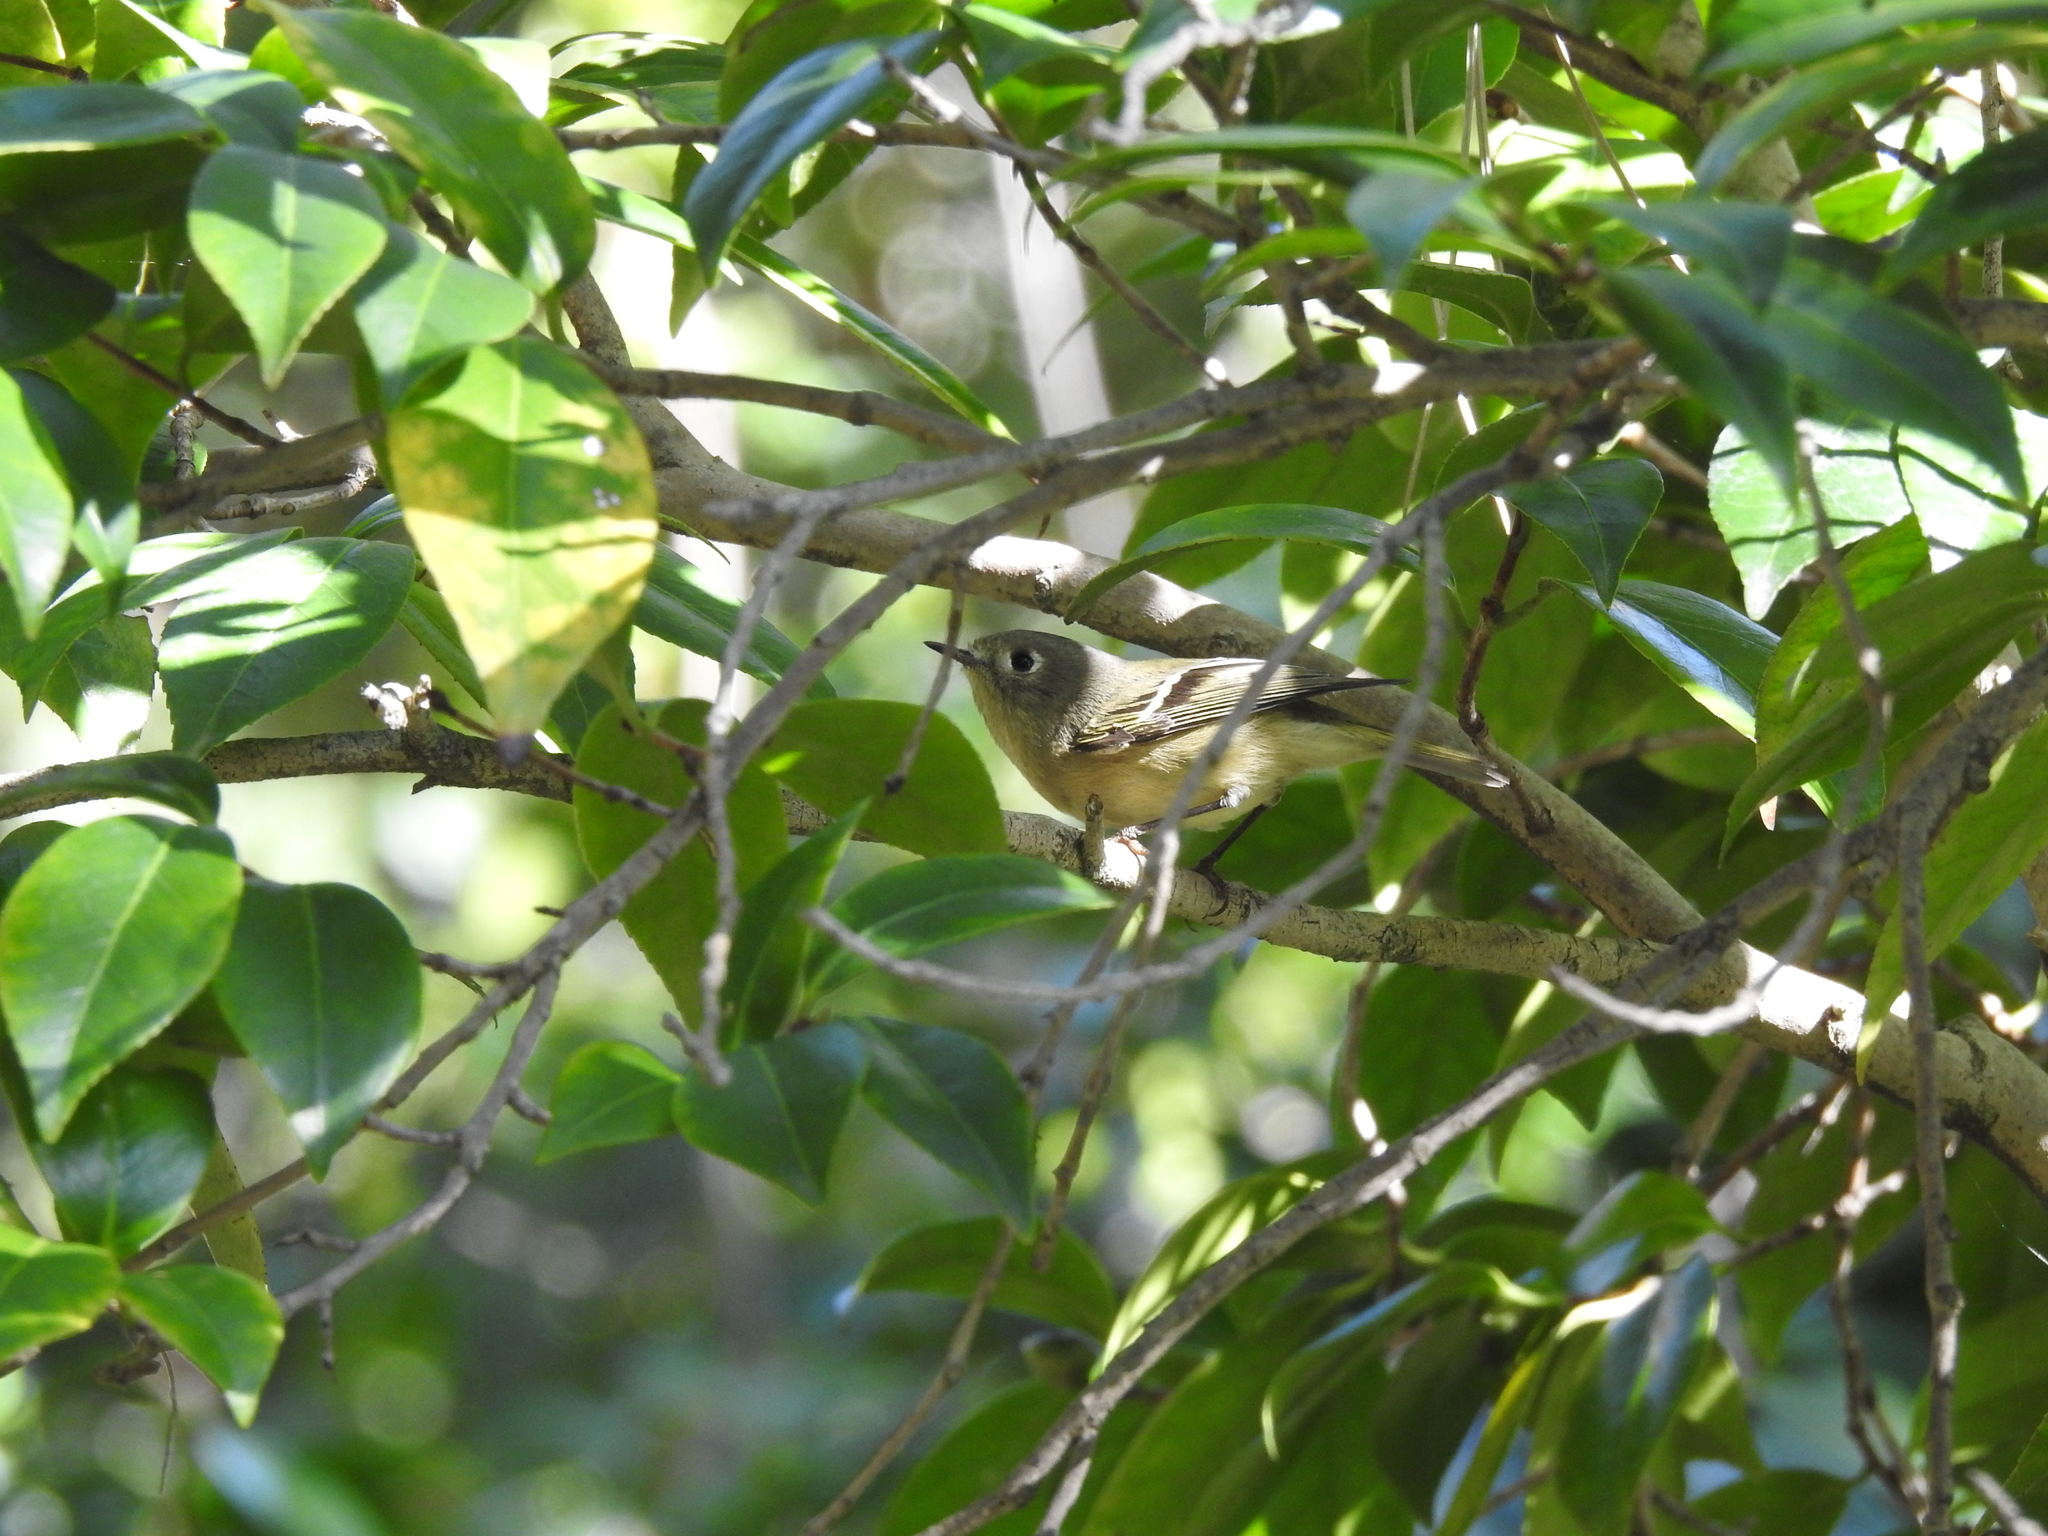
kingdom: Animalia
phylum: Chordata
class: Aves
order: Passeriformes
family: Regulidae
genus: Regulus
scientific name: Regulus calendula
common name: Ruby-crowned kinglet
